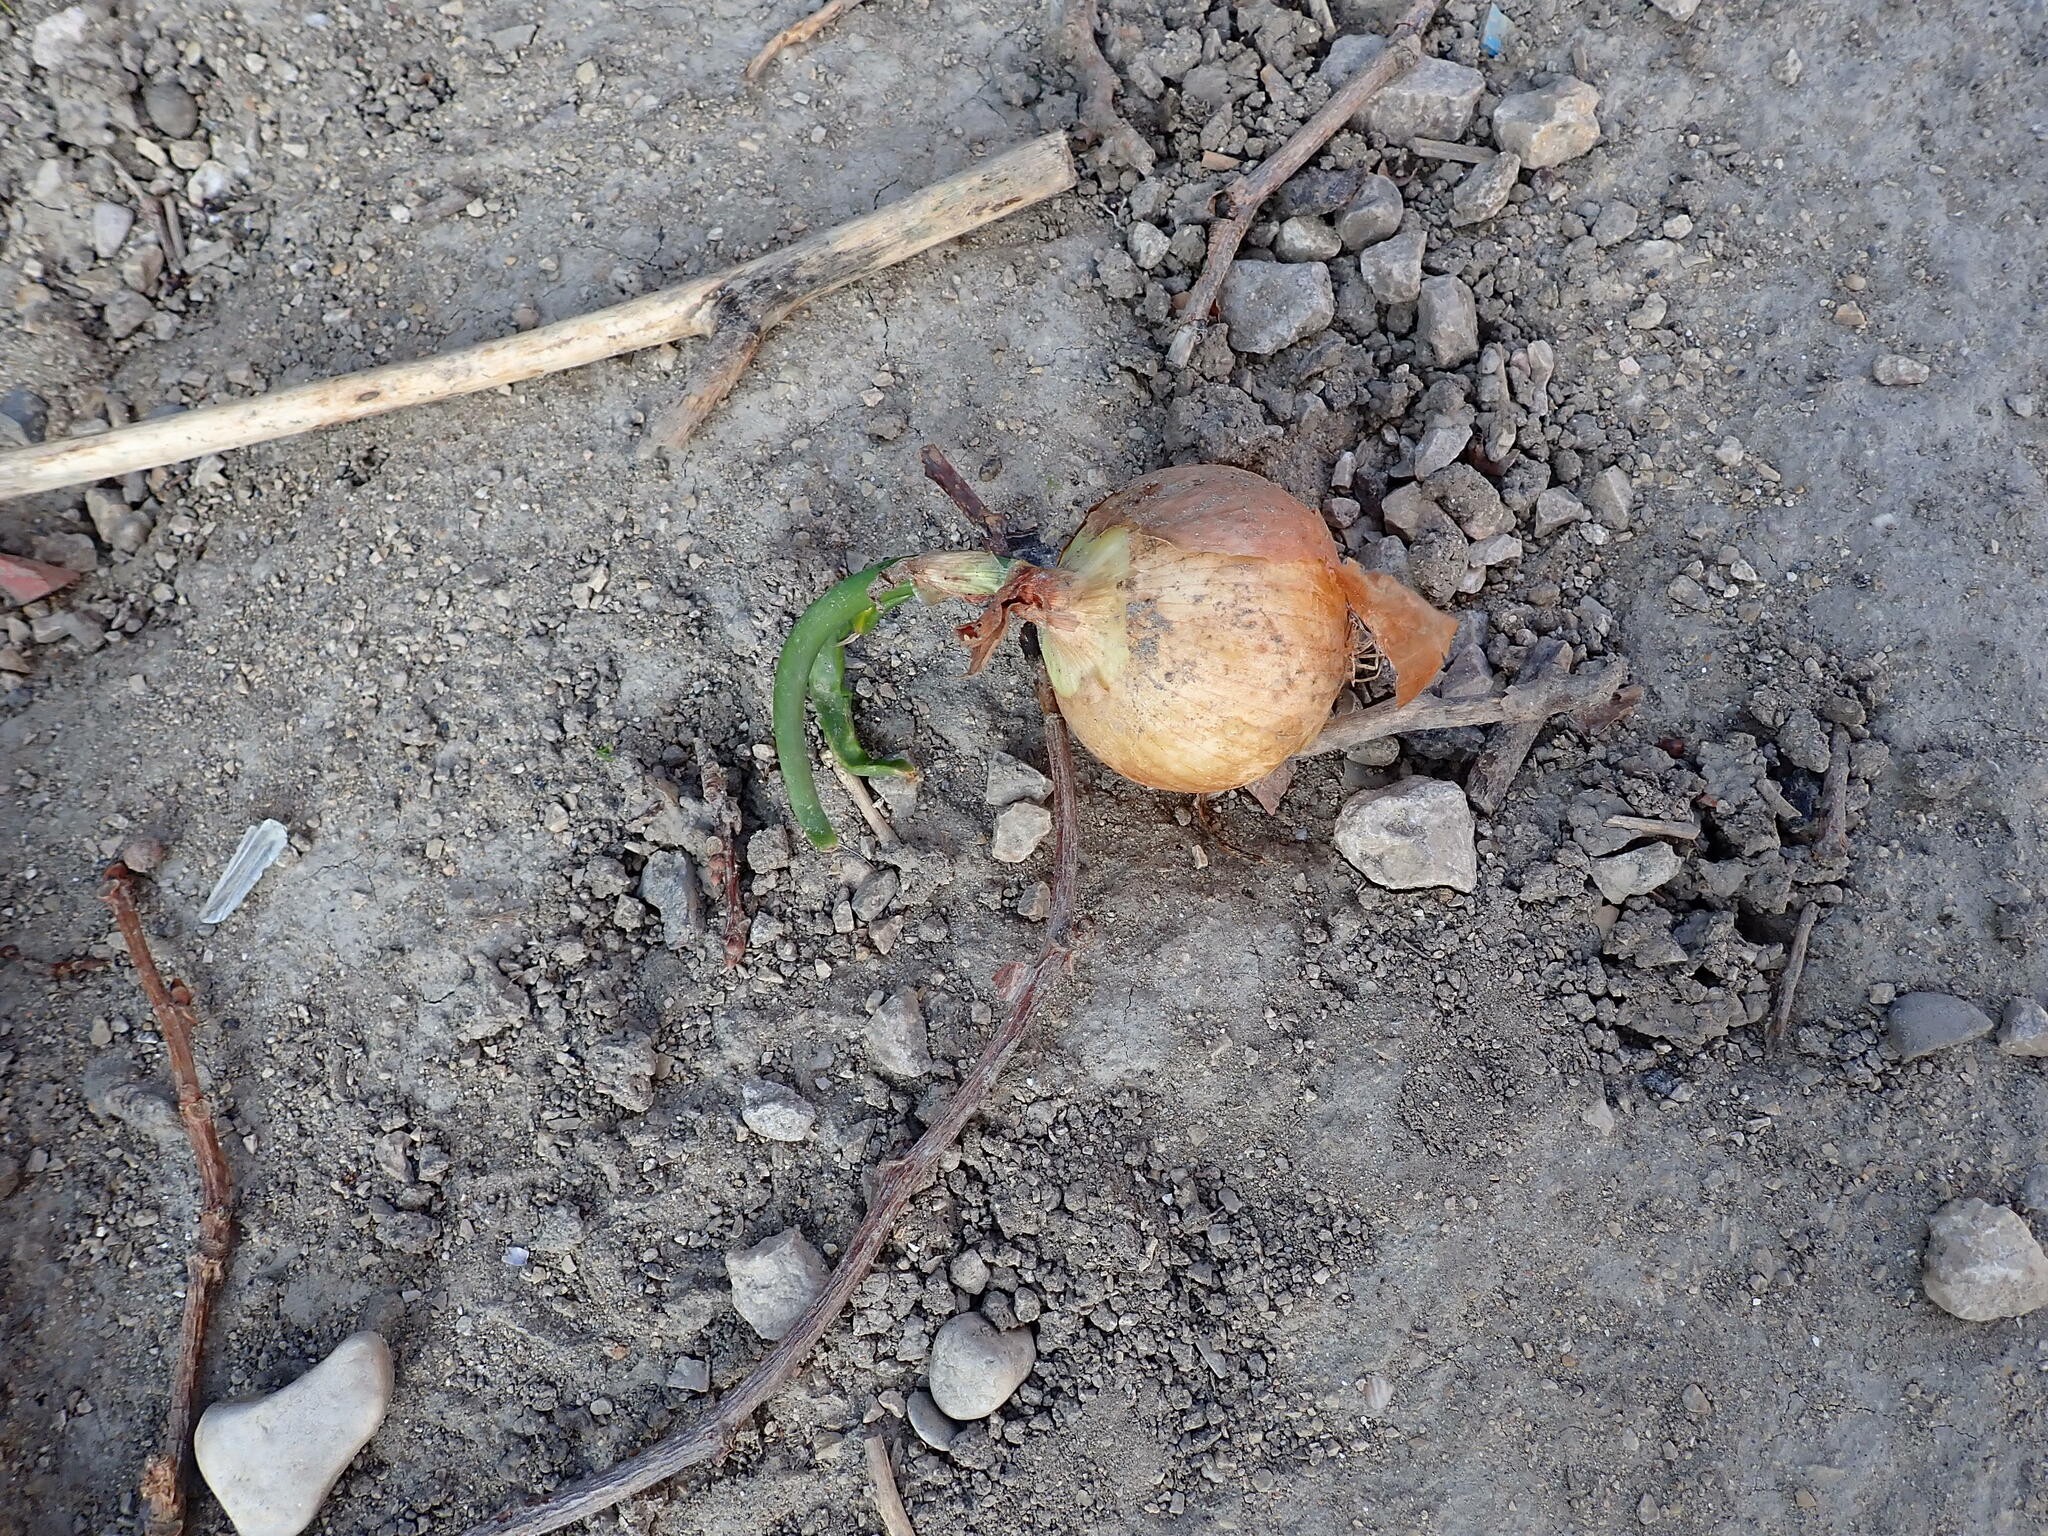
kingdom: Plantae
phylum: Tracheophyta
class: Liliopsida
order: Asparagales
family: Amaryllidaceae
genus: Allium
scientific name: Allium cepa
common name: Onion
